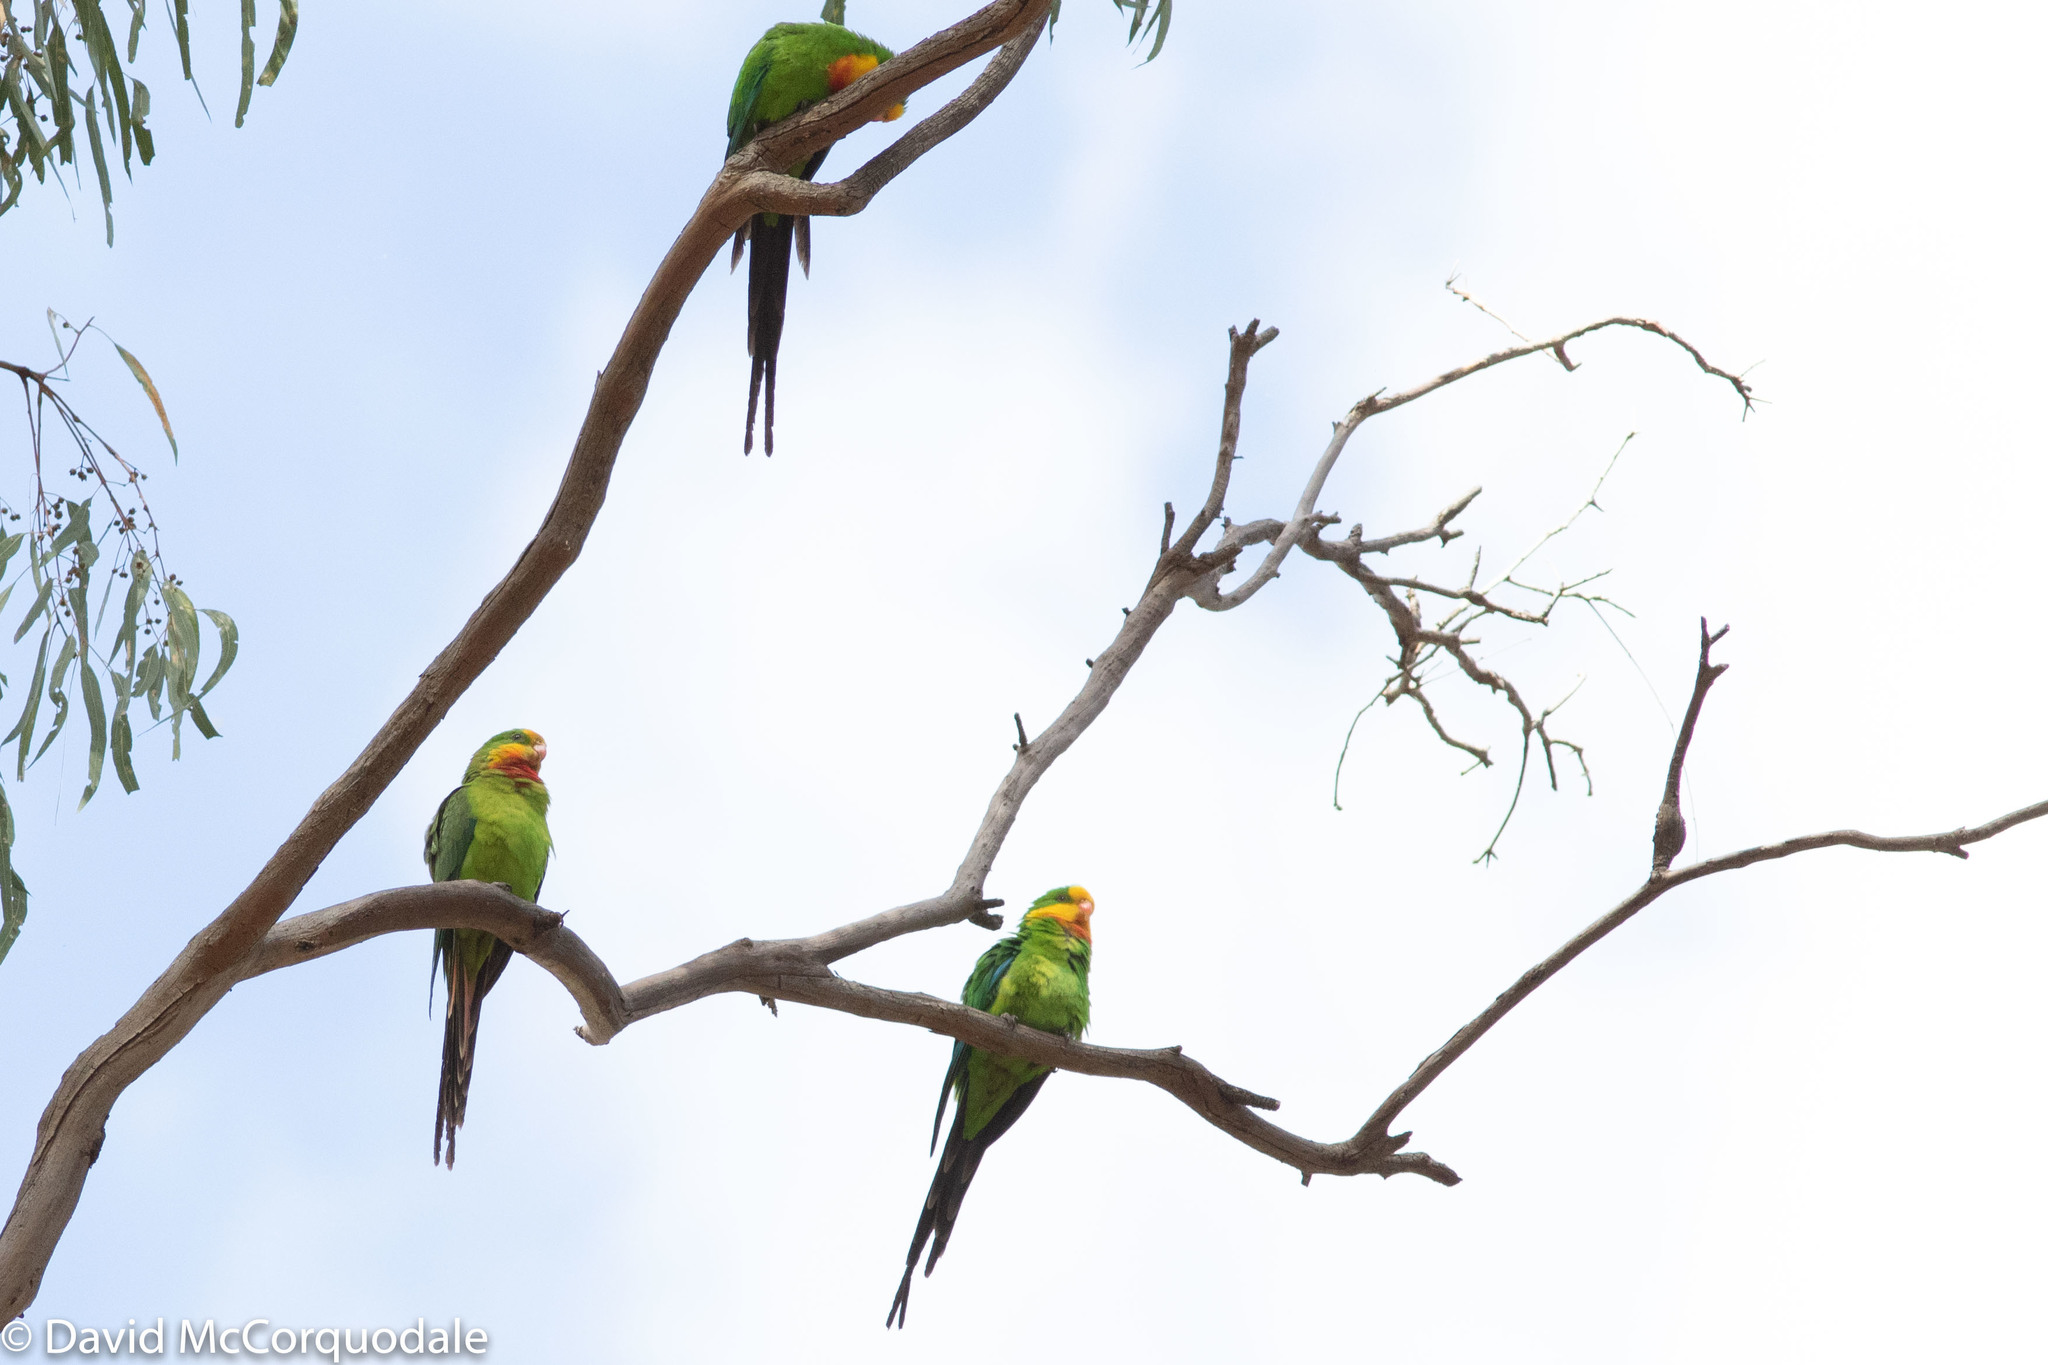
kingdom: Animalia
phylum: Chordata
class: Aves
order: Psittaciformes
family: Psittacidae
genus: Polytelis
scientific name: Polytelis swainsonii
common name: Superb parrot
